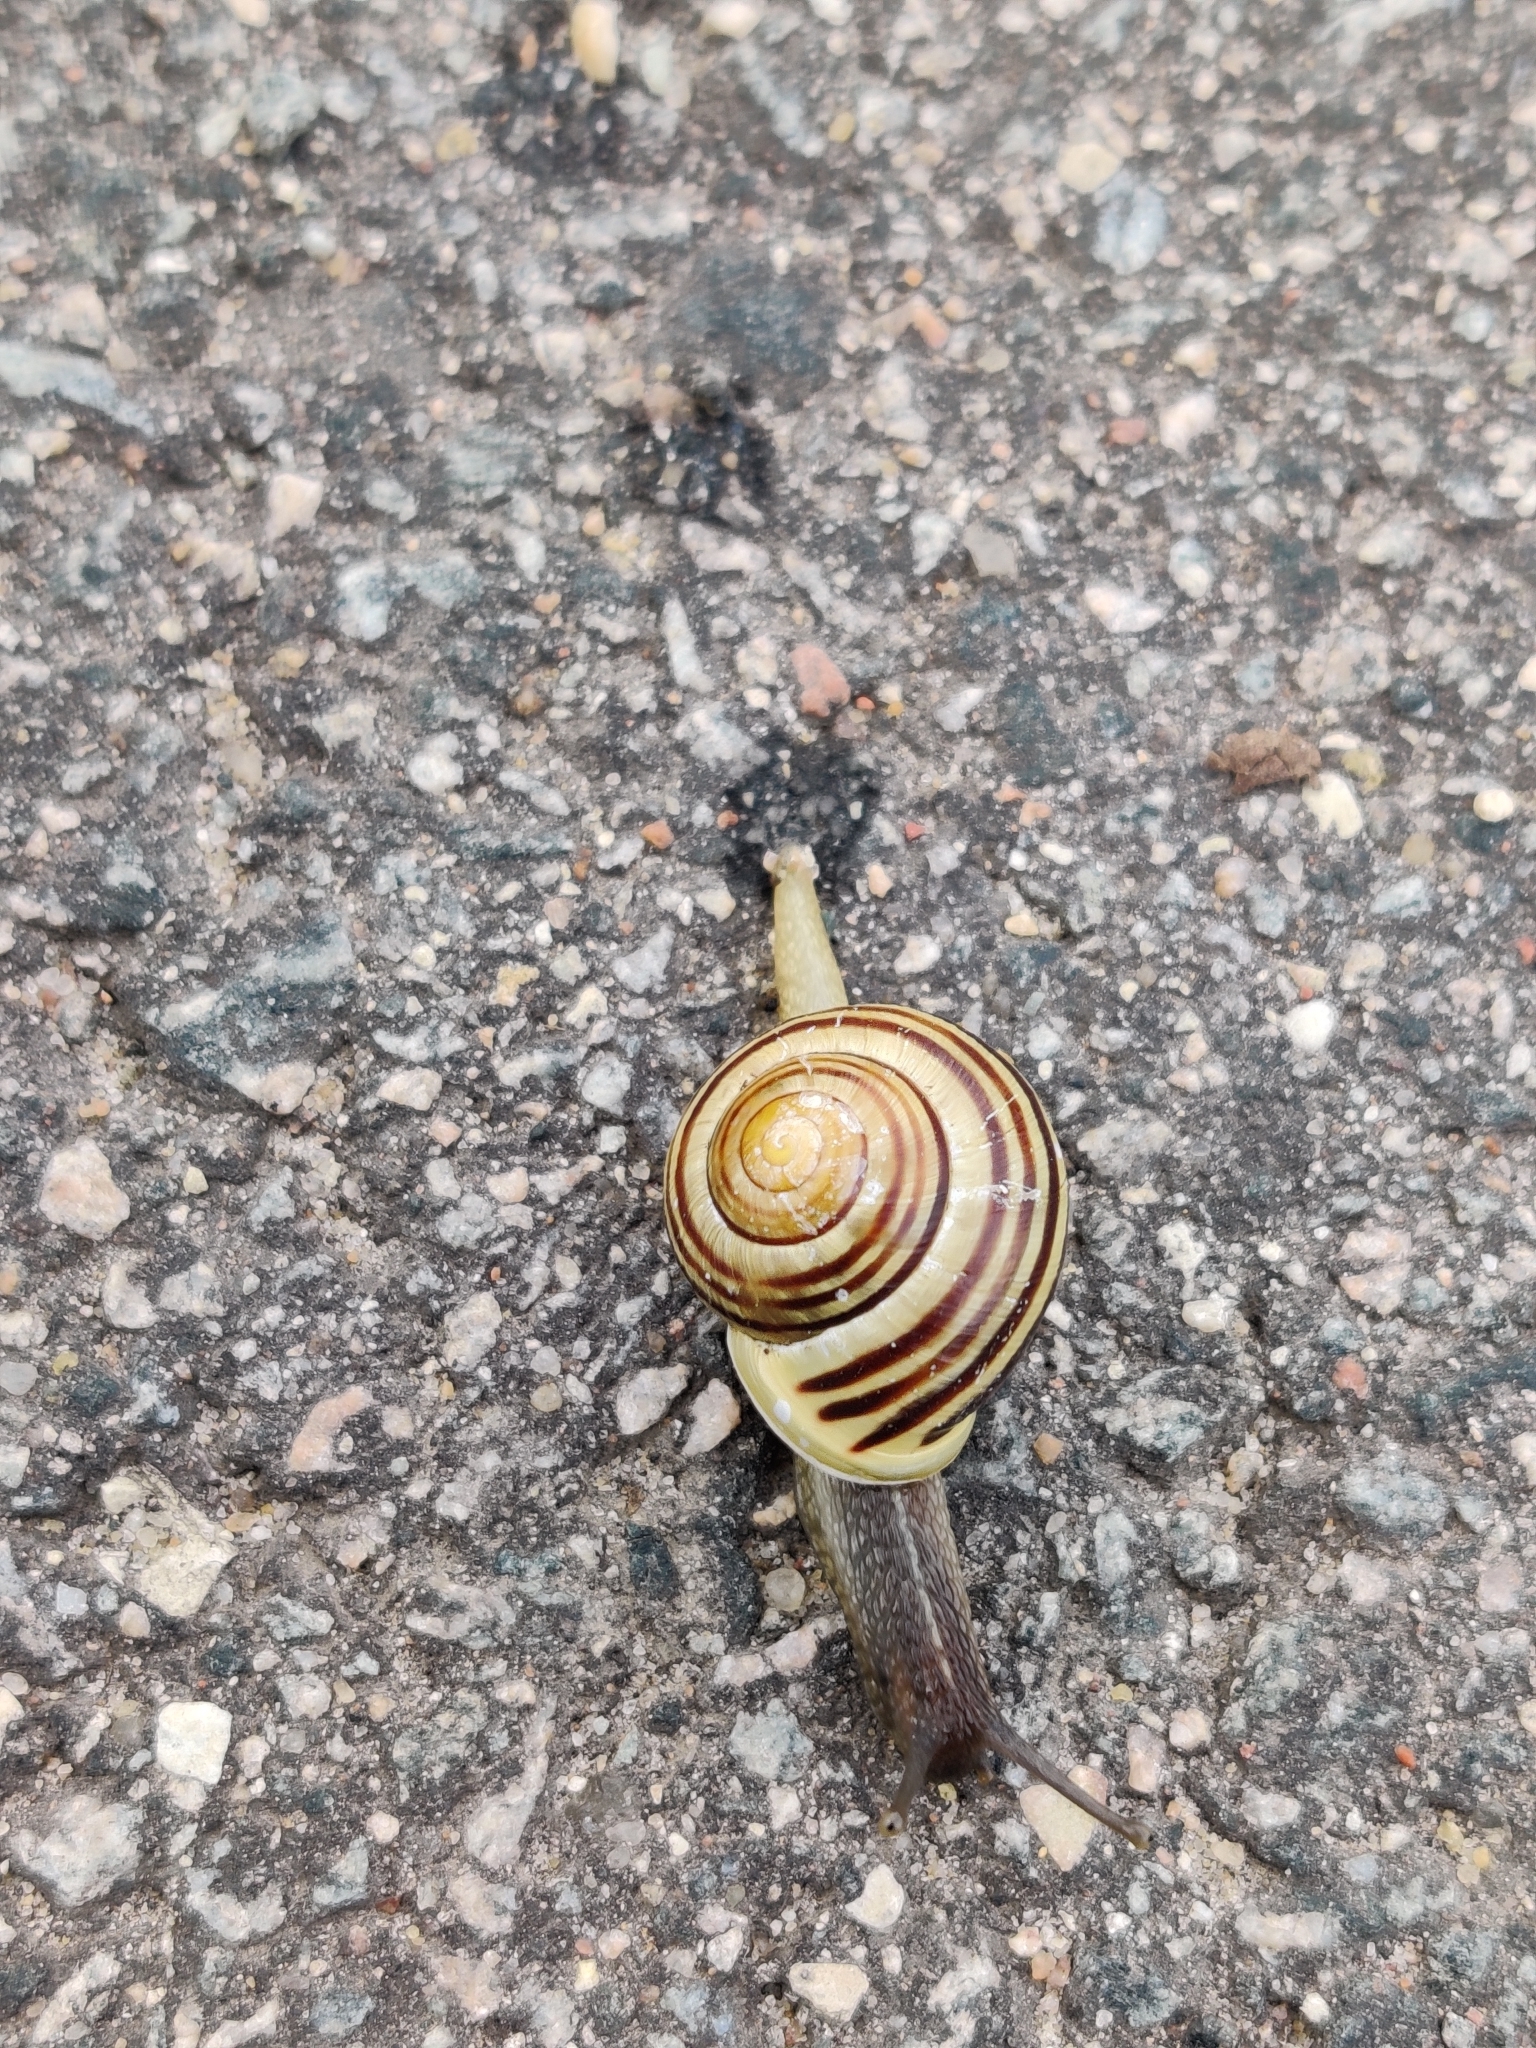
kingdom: Animalia
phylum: Mollusca
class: Gastropoda
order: Stylommatophora
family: Helicidae
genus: Cepaea
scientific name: Cepaea hortensis
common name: White-lip gardensnail
